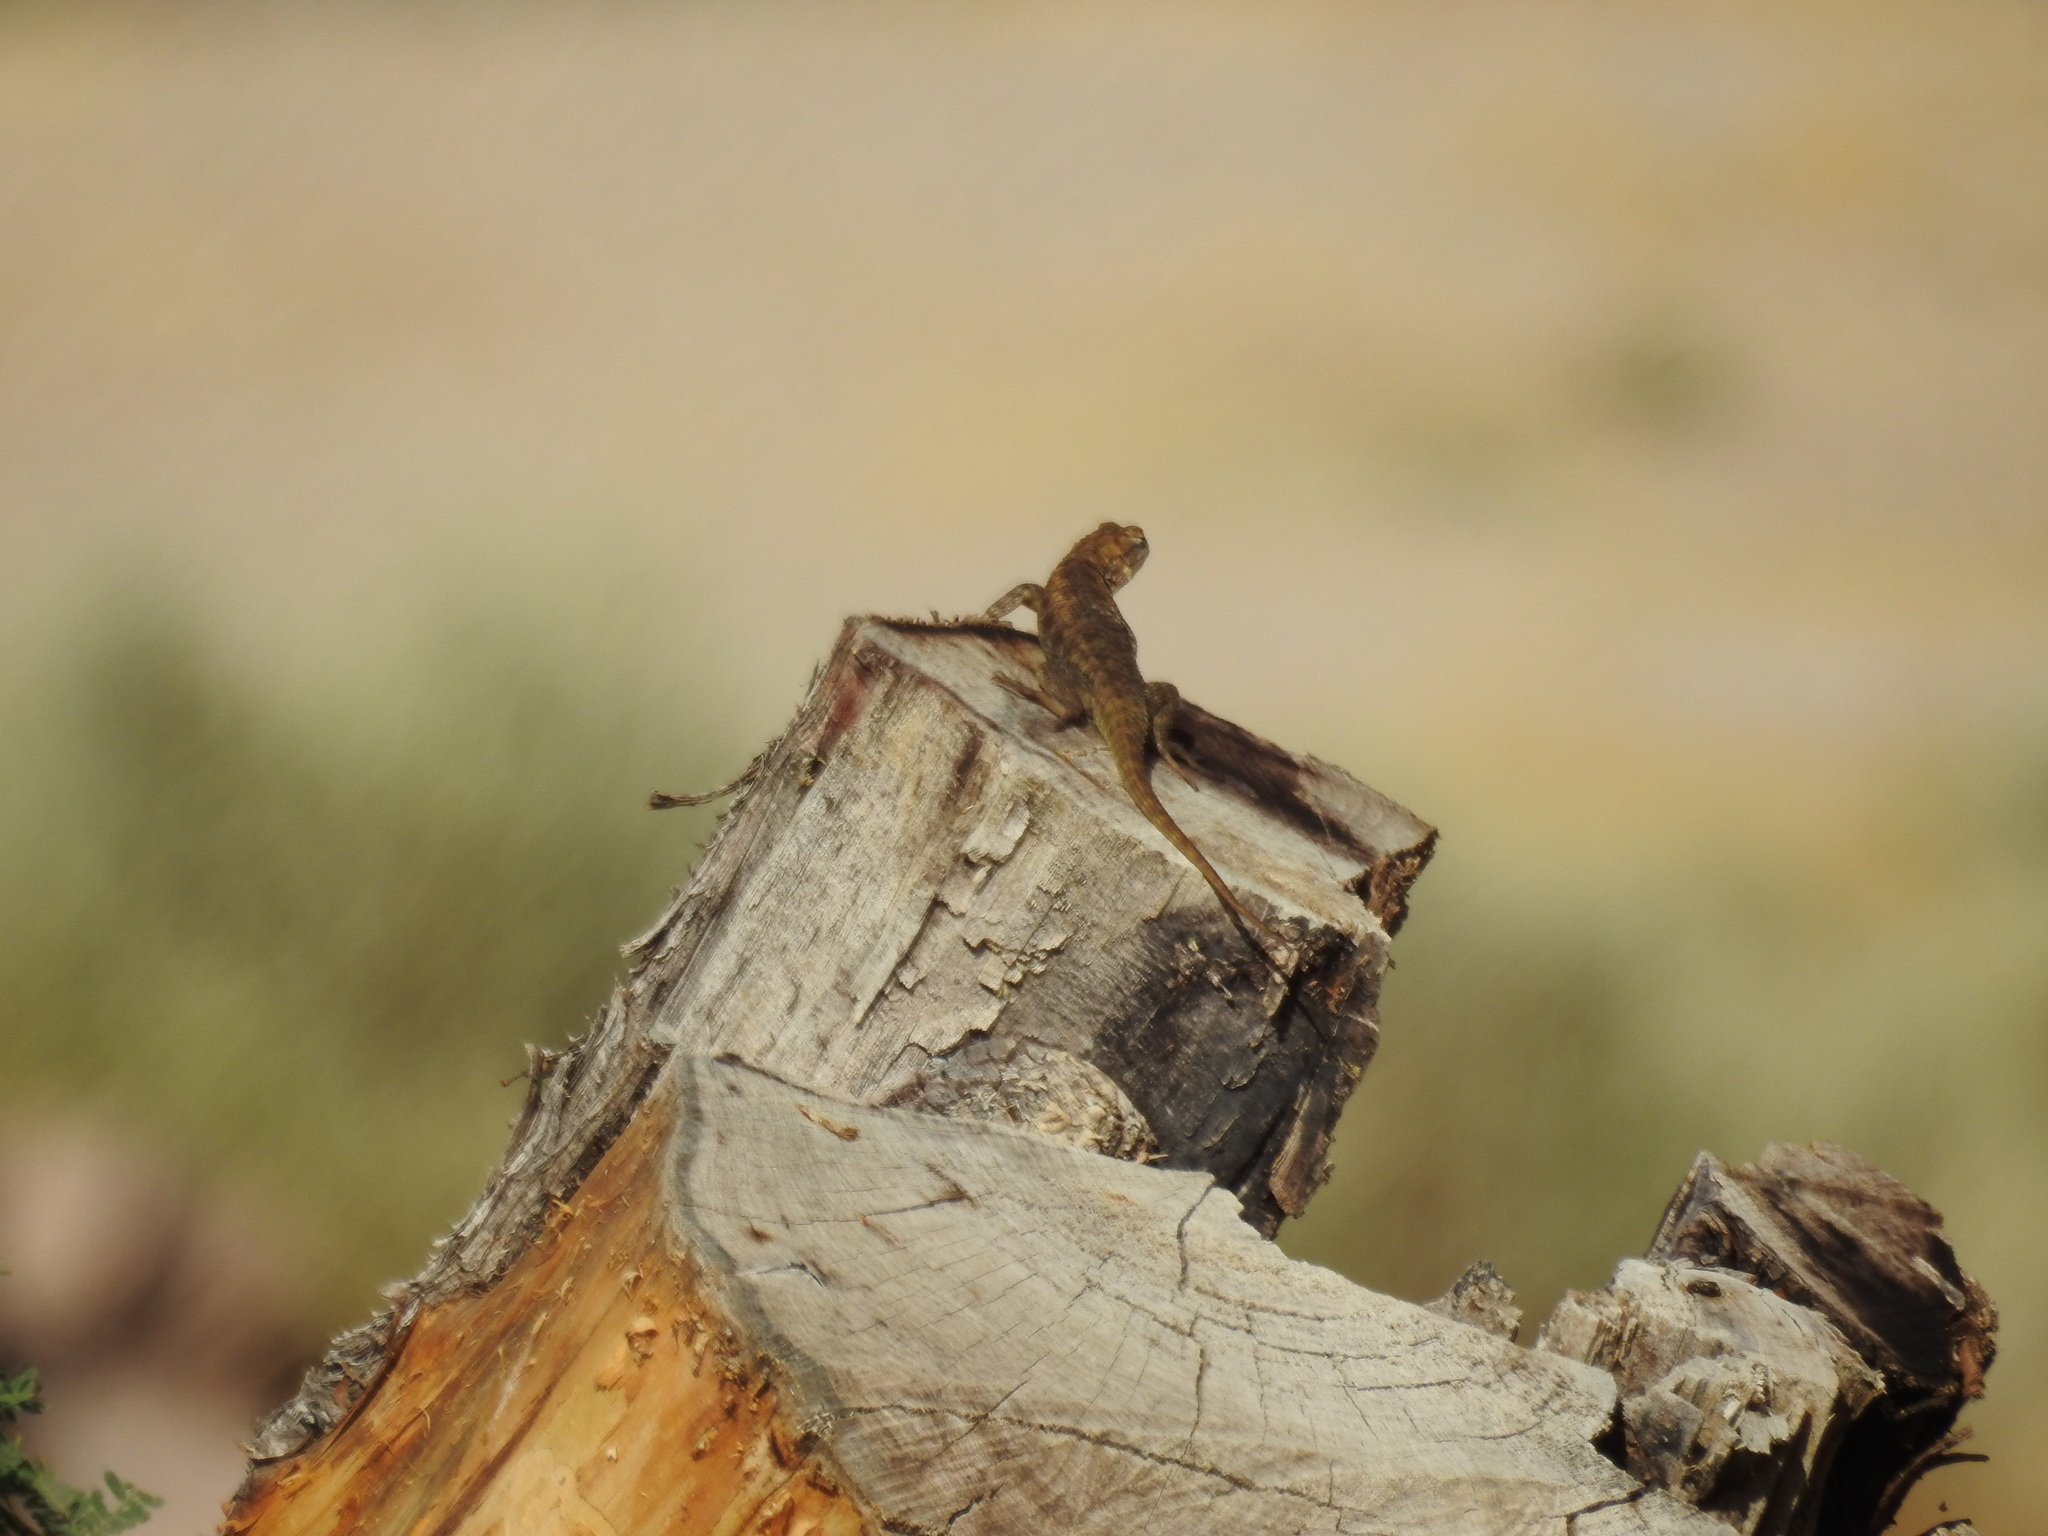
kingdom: Animalia
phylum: Chordata
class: Squamata
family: Phrynosomatidae
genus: Sceloporus
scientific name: Sceloporus magister
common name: Desert spiny lizard
